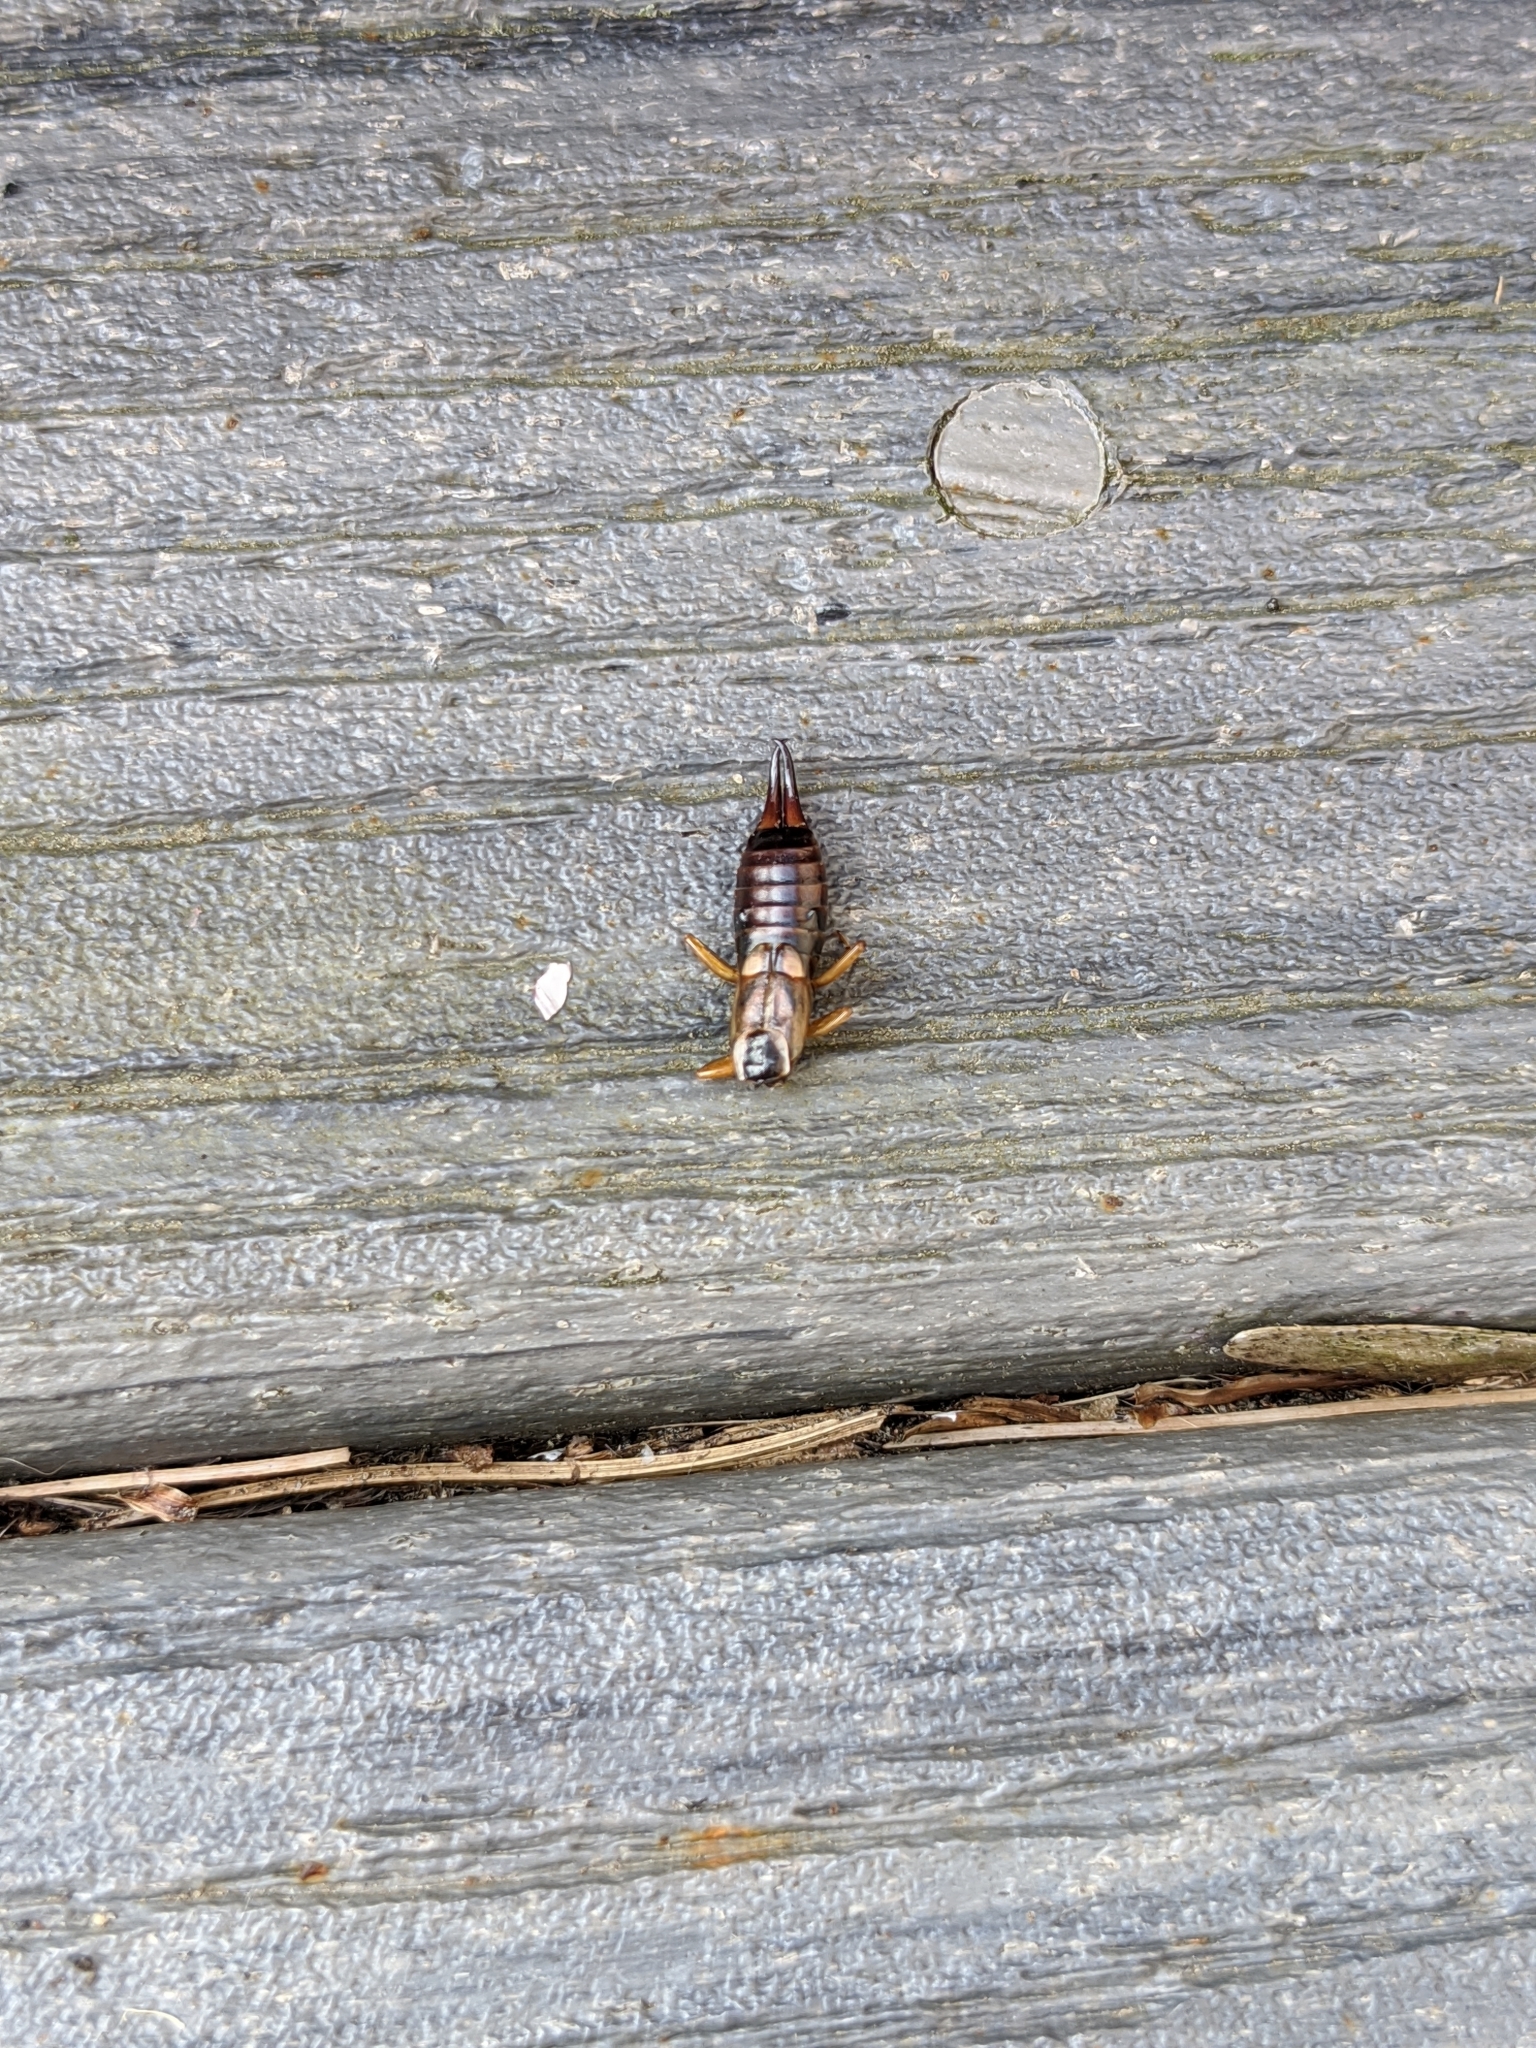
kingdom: Animalia
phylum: Arthropoda
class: Insecta
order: Dermaptera
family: Forficulidae
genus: Forficula
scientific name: Forficula
